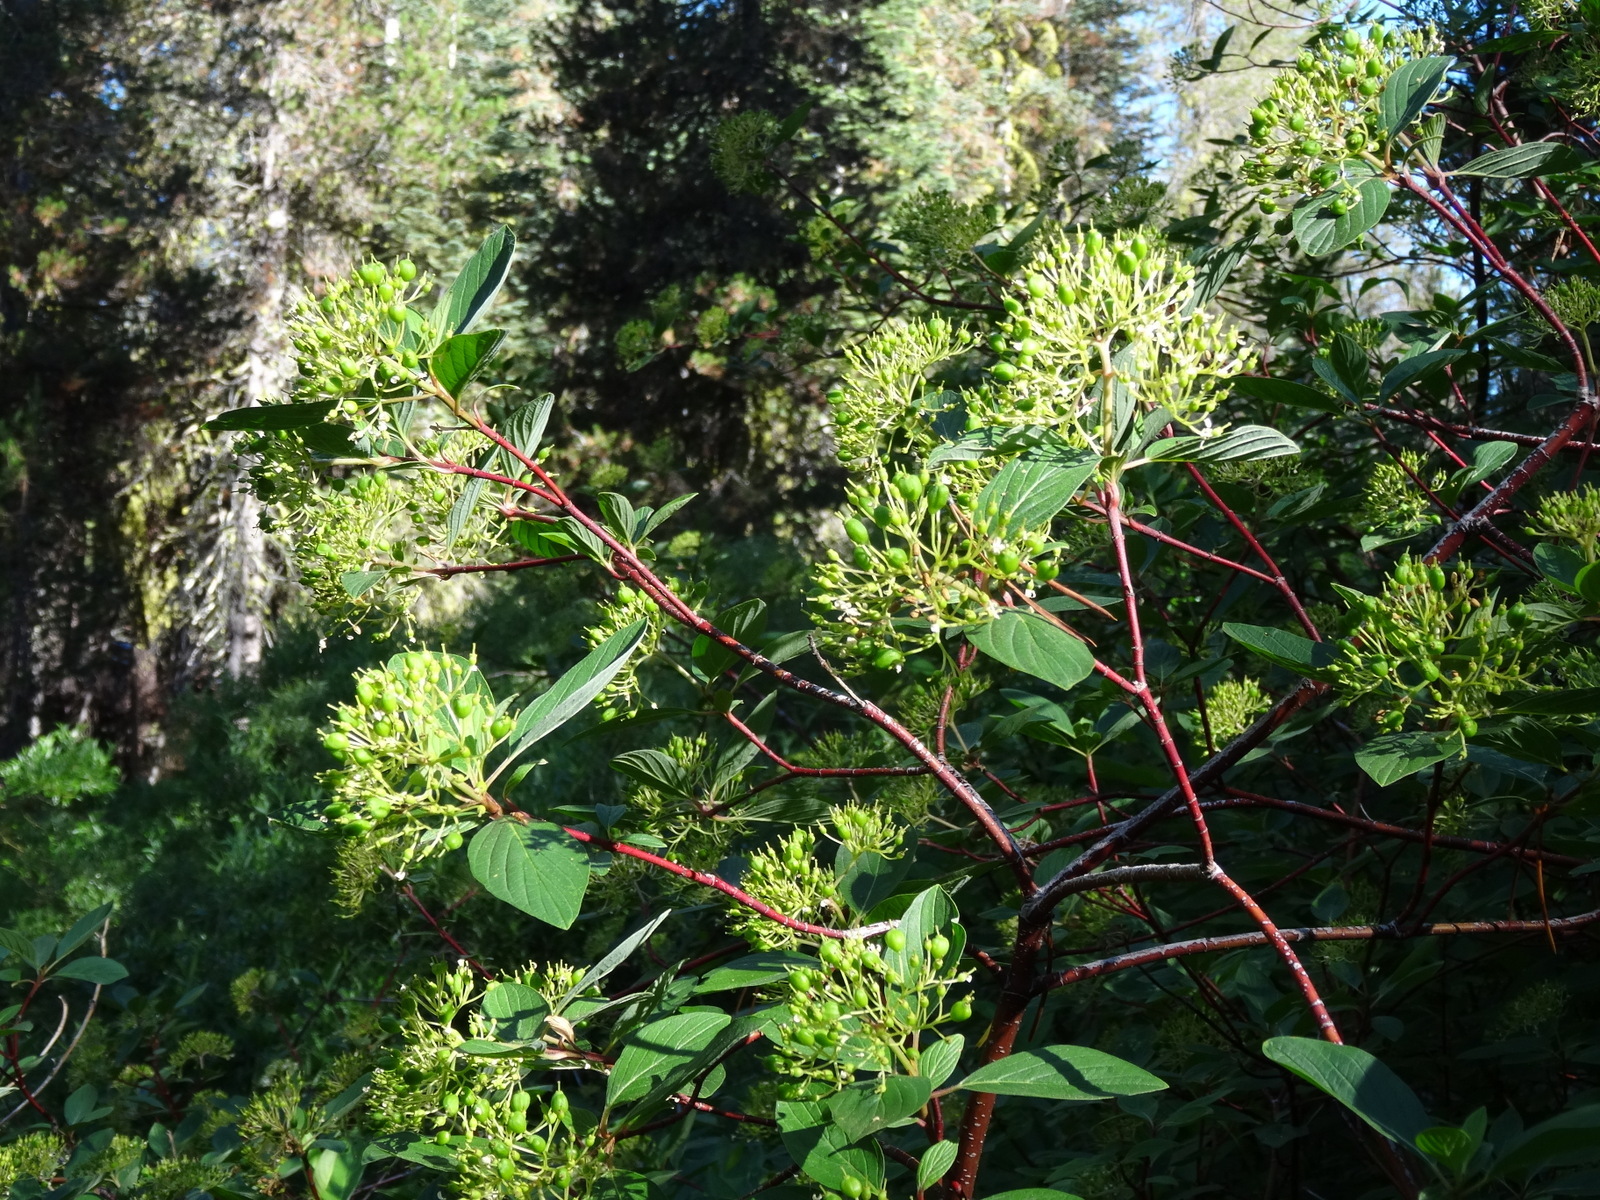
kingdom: Plantae
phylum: Tracheophyta
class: Magnoliopsida
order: Cornales
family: Cornaceae
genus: Cornus
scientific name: Cornus sericea
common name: Red-osier dogwood
